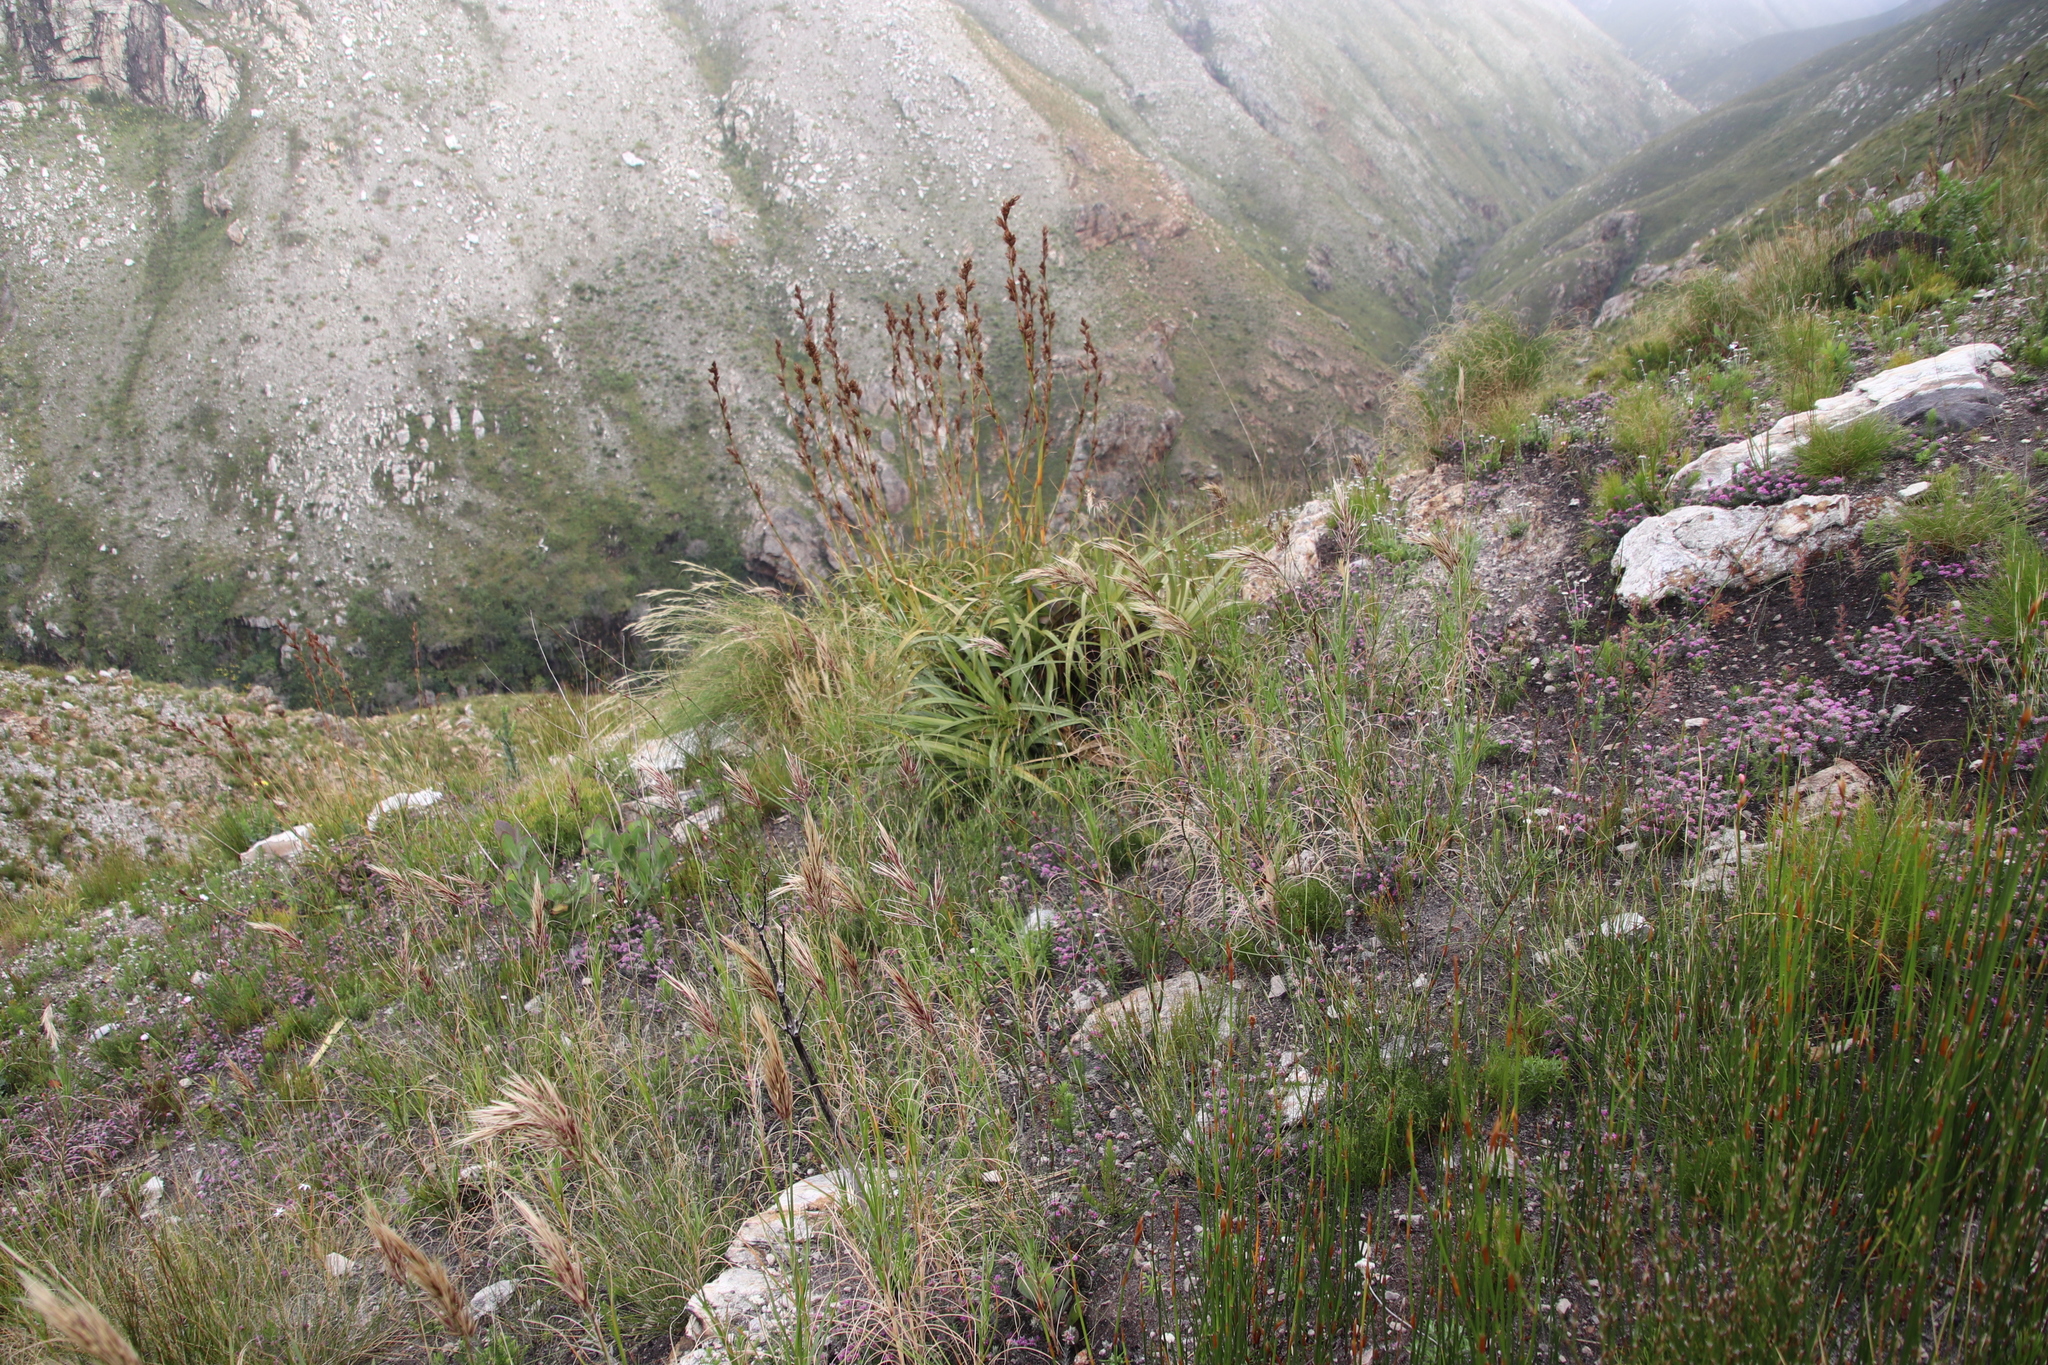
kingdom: Plantae
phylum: Tracheophyta
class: Liliopsida
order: Poales
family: Cyperaceae
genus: Tetraria
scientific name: Tetraria thermalis
